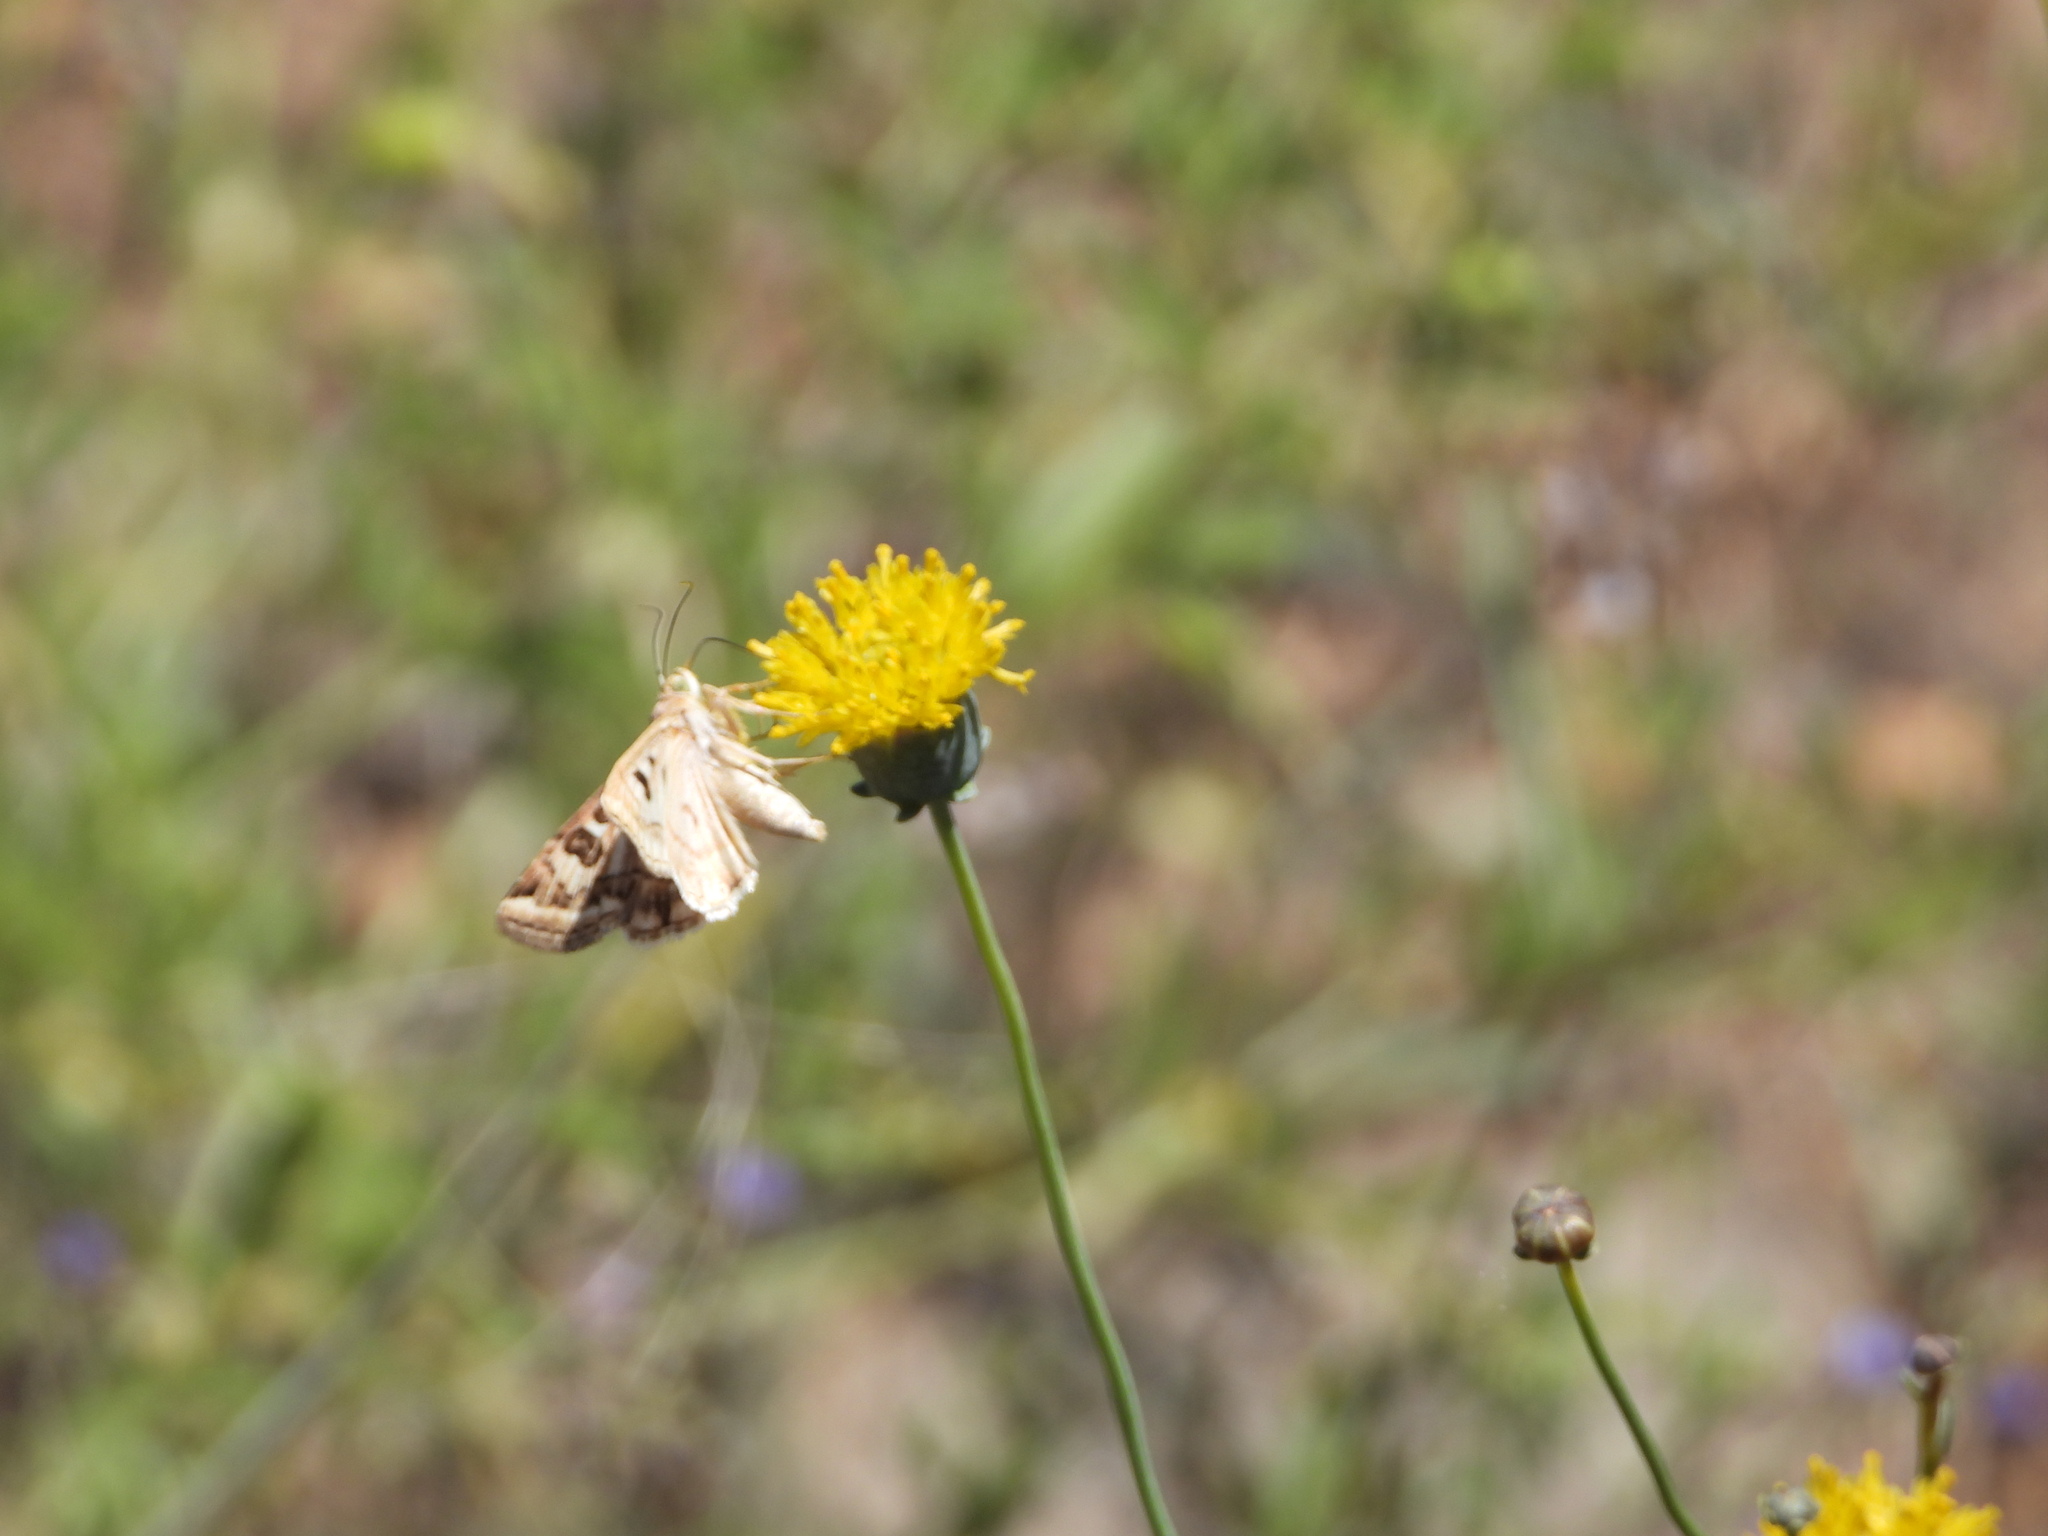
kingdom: Animalia
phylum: Arthropoda
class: Insecta
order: Lepidoptera
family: Noctuidae
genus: Schinia
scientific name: Schinia nuchalis
